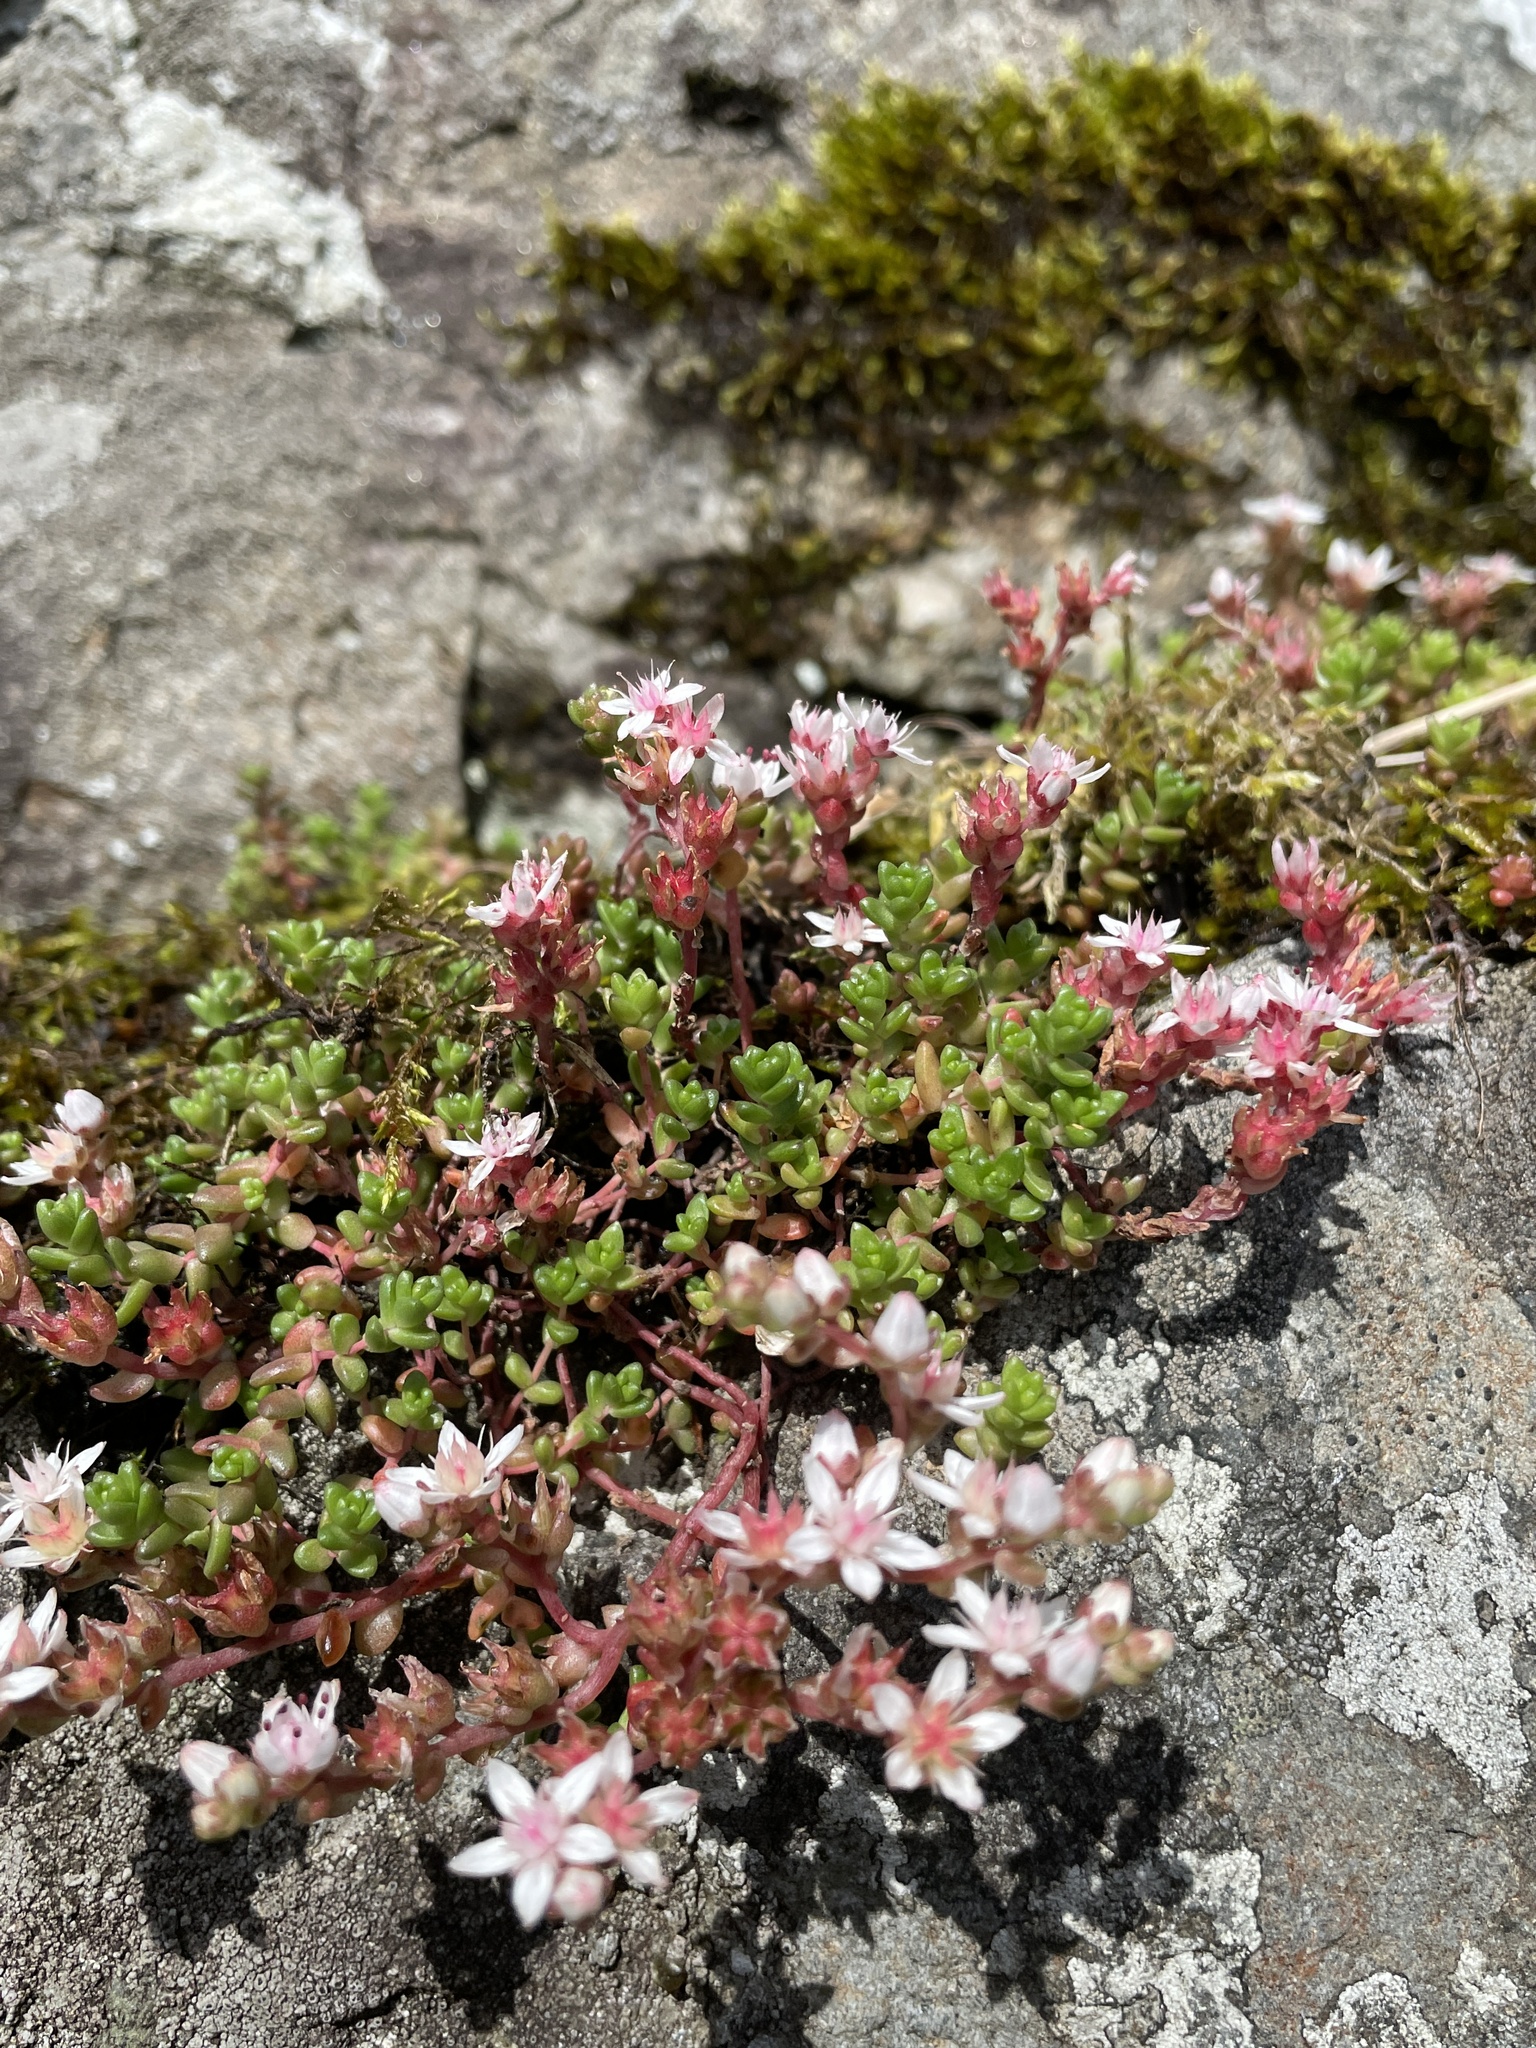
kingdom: Plantae
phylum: Tracheophyta
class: Magnoliopsida
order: Saxifragales
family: Crassulaceae
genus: Sedum
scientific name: Sedum anglicum
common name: English stonecrop
